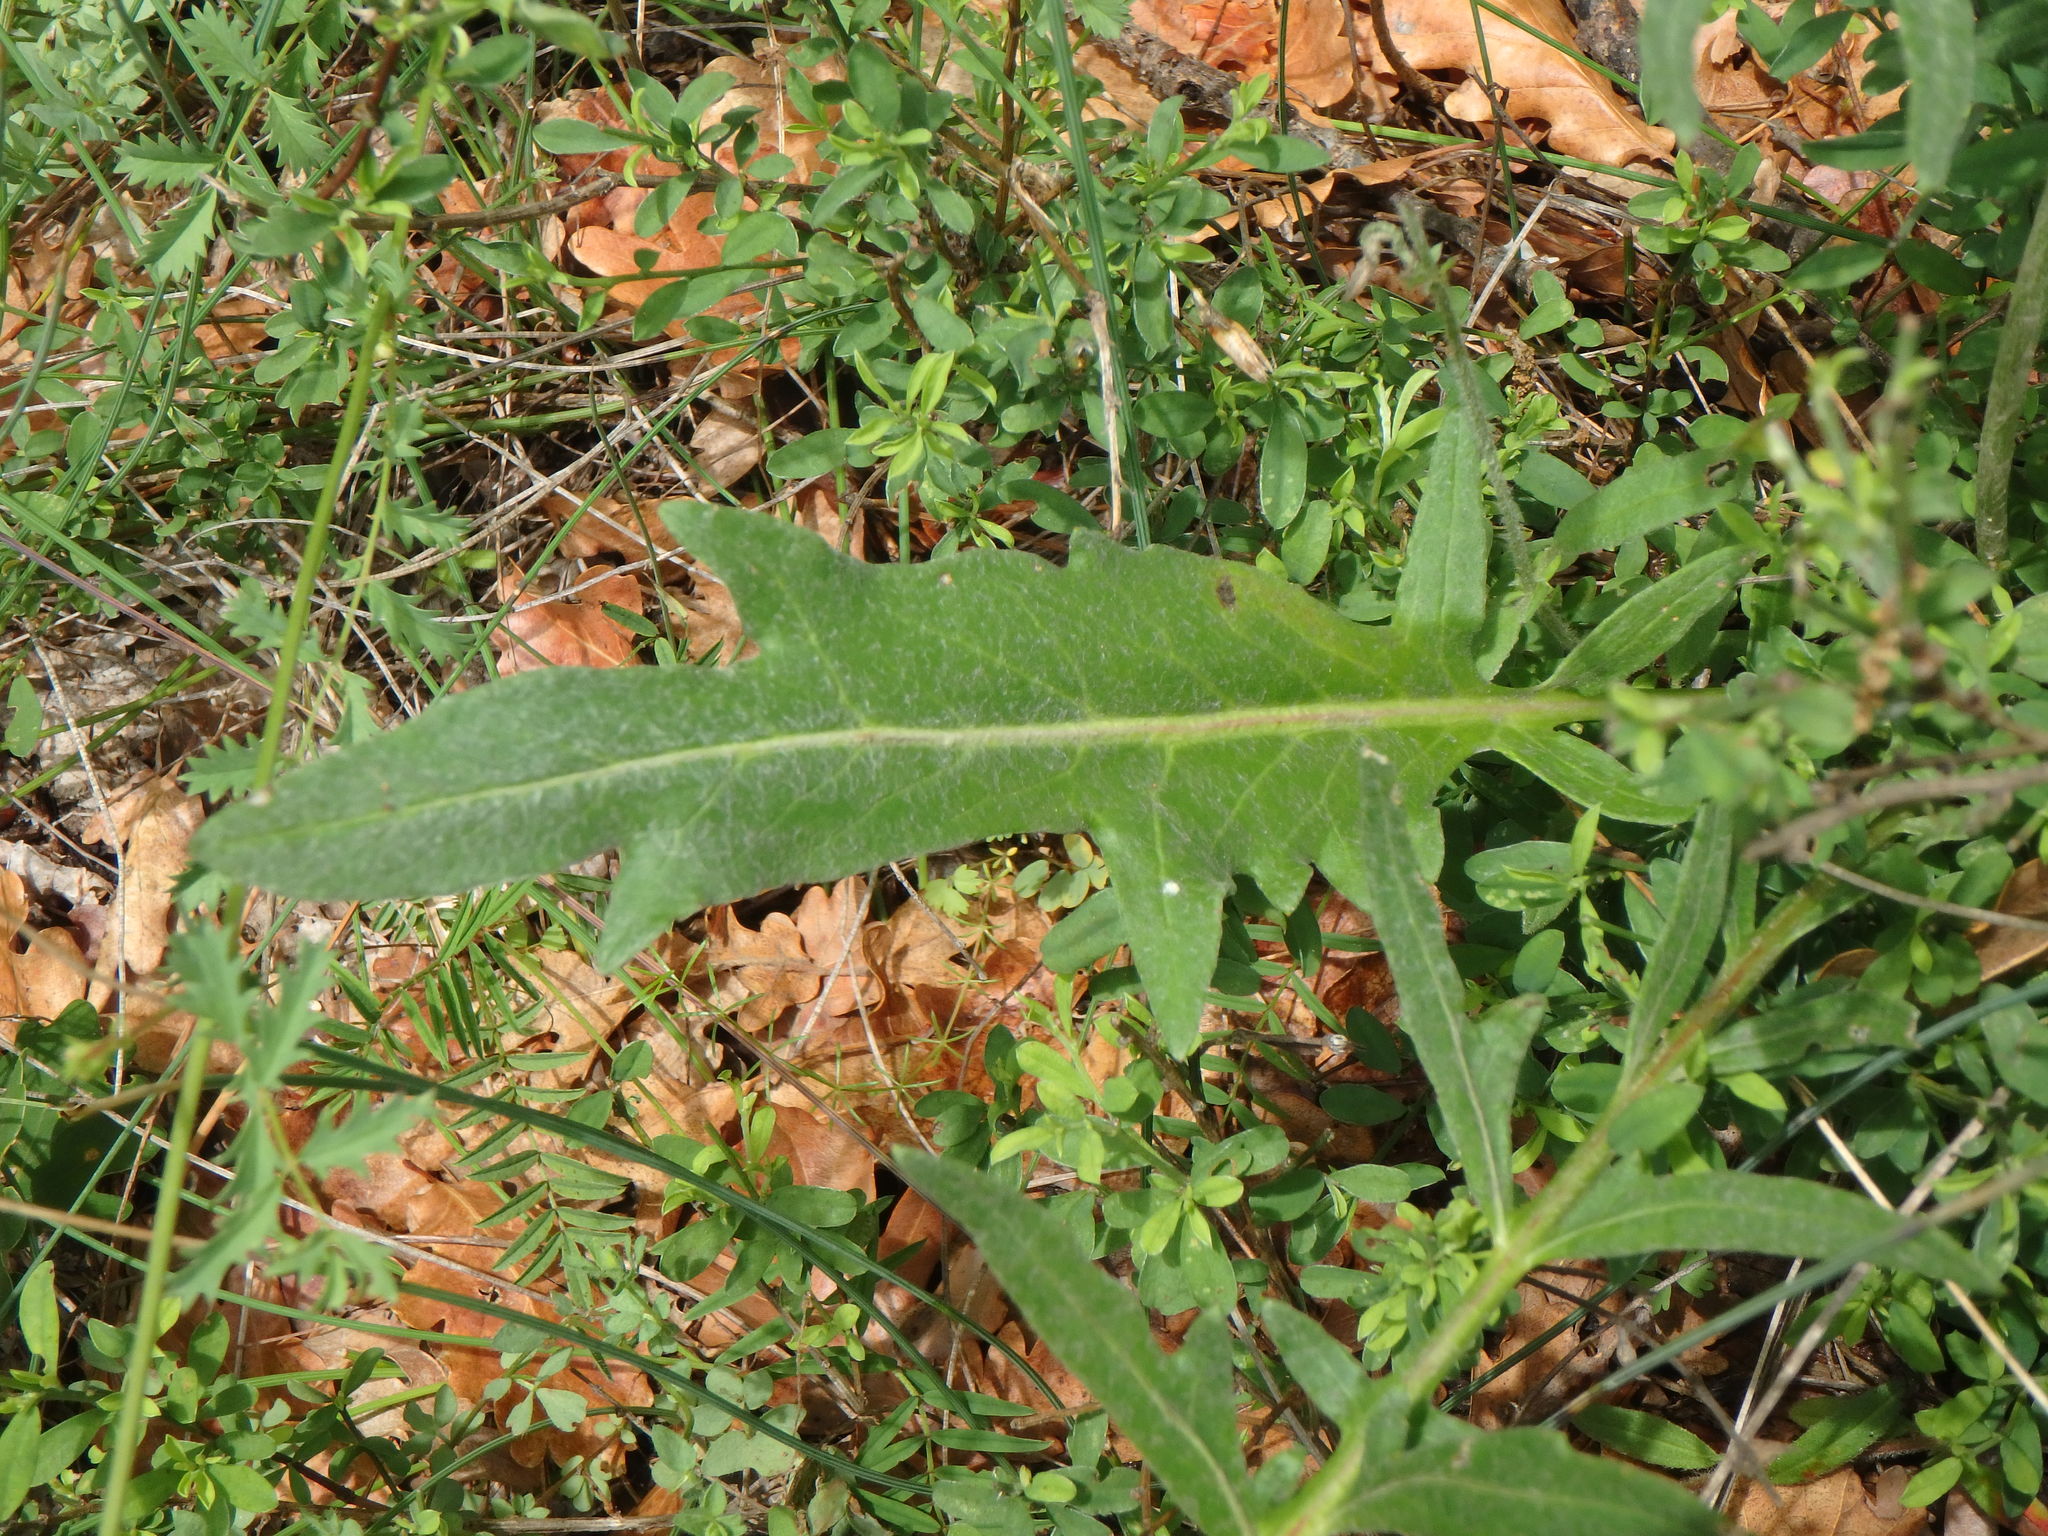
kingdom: Plantae
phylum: Tracheophyta
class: Magnoliopsida
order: Asterales
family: Asteraceae
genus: Leuzea
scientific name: Leuzea conifera
